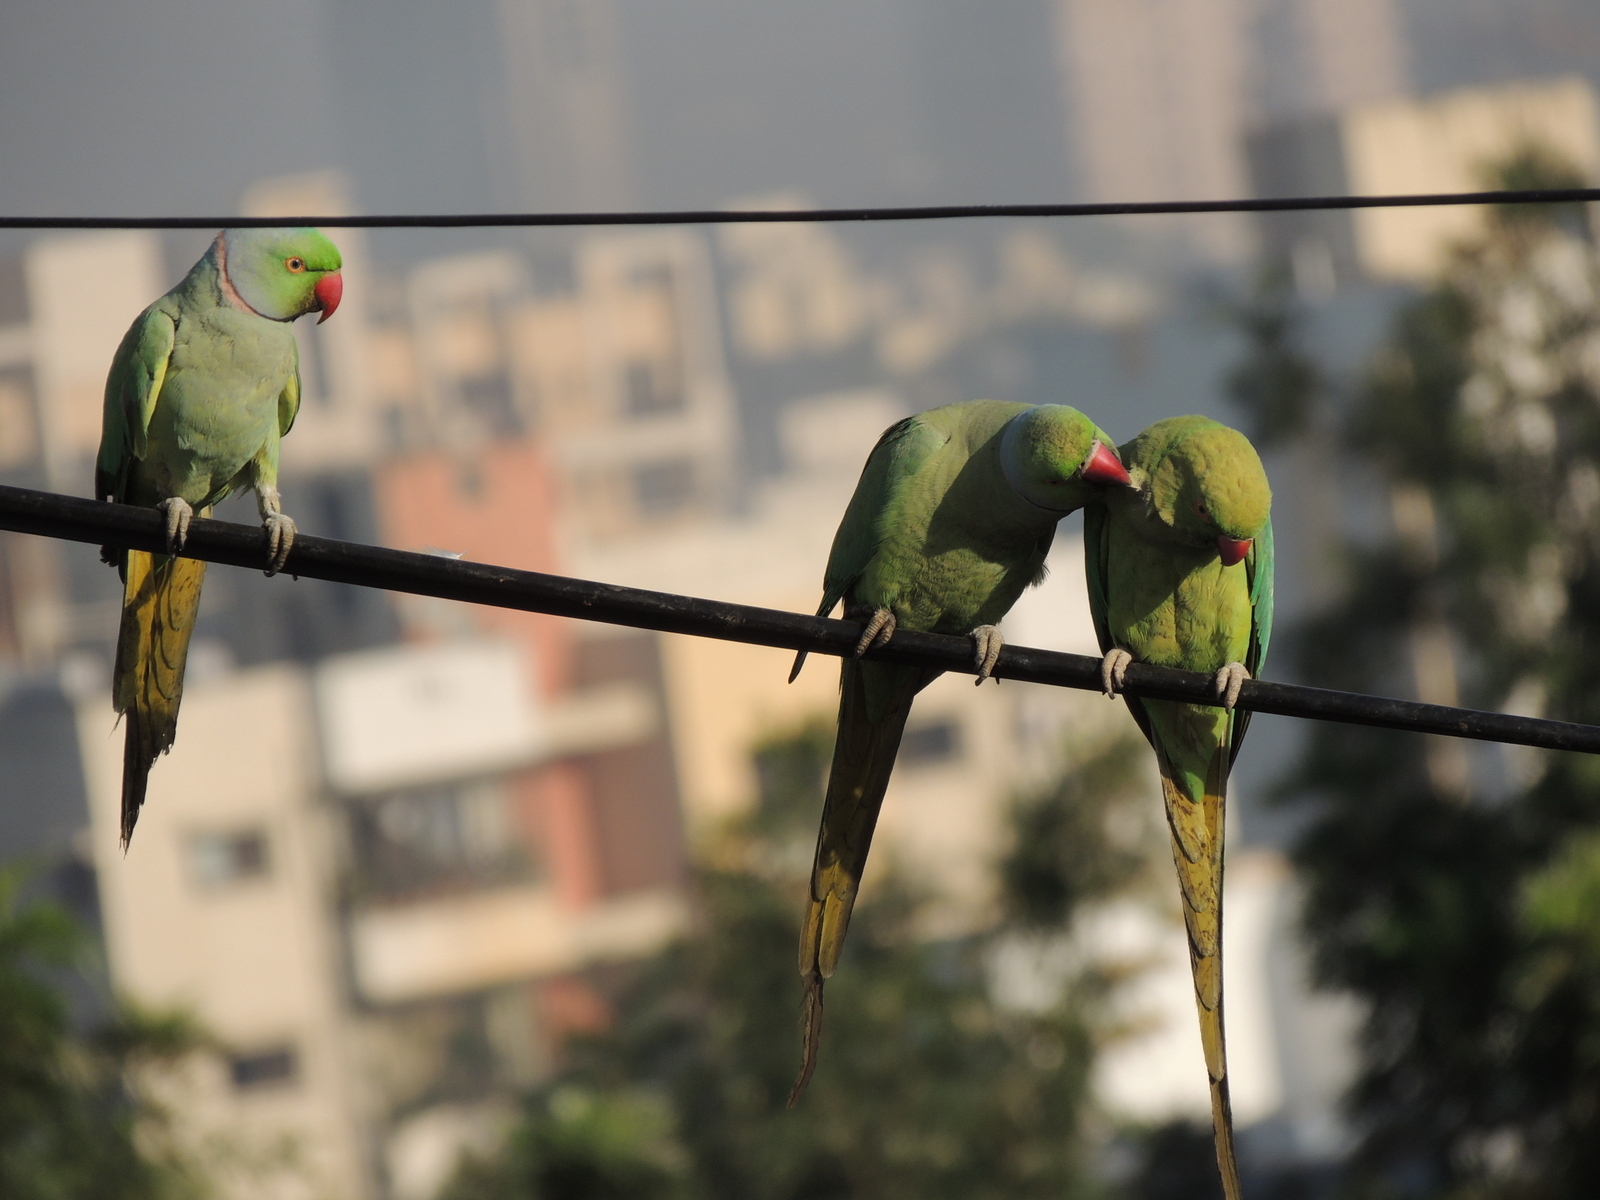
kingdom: Animalia
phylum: Chordata
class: Aves
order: Psittaciformes
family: Psittacidae
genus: Psittacula
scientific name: Psittacula krameri
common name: Rose-ringed parakeet
